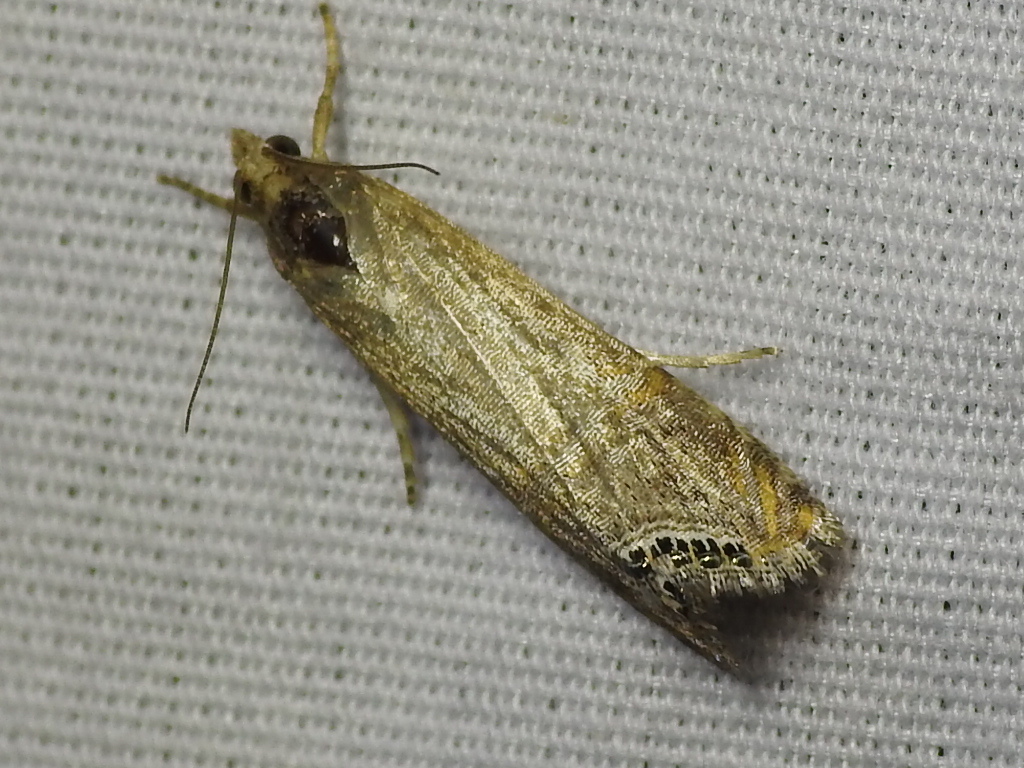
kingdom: Animalia
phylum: Arthropoda
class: Insecta
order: Lepidoptera
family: Crambidae
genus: Euchromius
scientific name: Euchromius ocellea
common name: Necklace veneer moth
